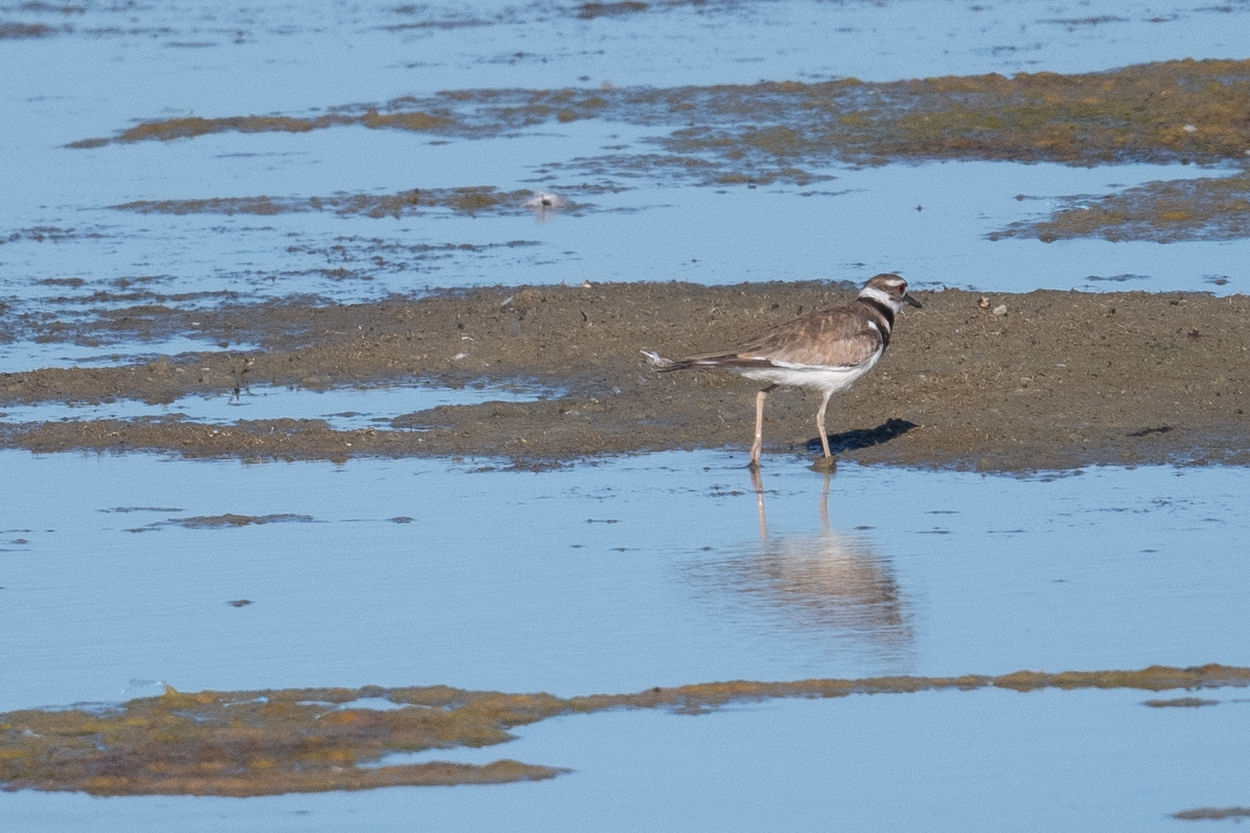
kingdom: Animalia
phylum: Chordata
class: Aves
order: Charadriiformes
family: Charadriidae
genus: Charadrius
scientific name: Charadrius vociferus
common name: Killdeer
